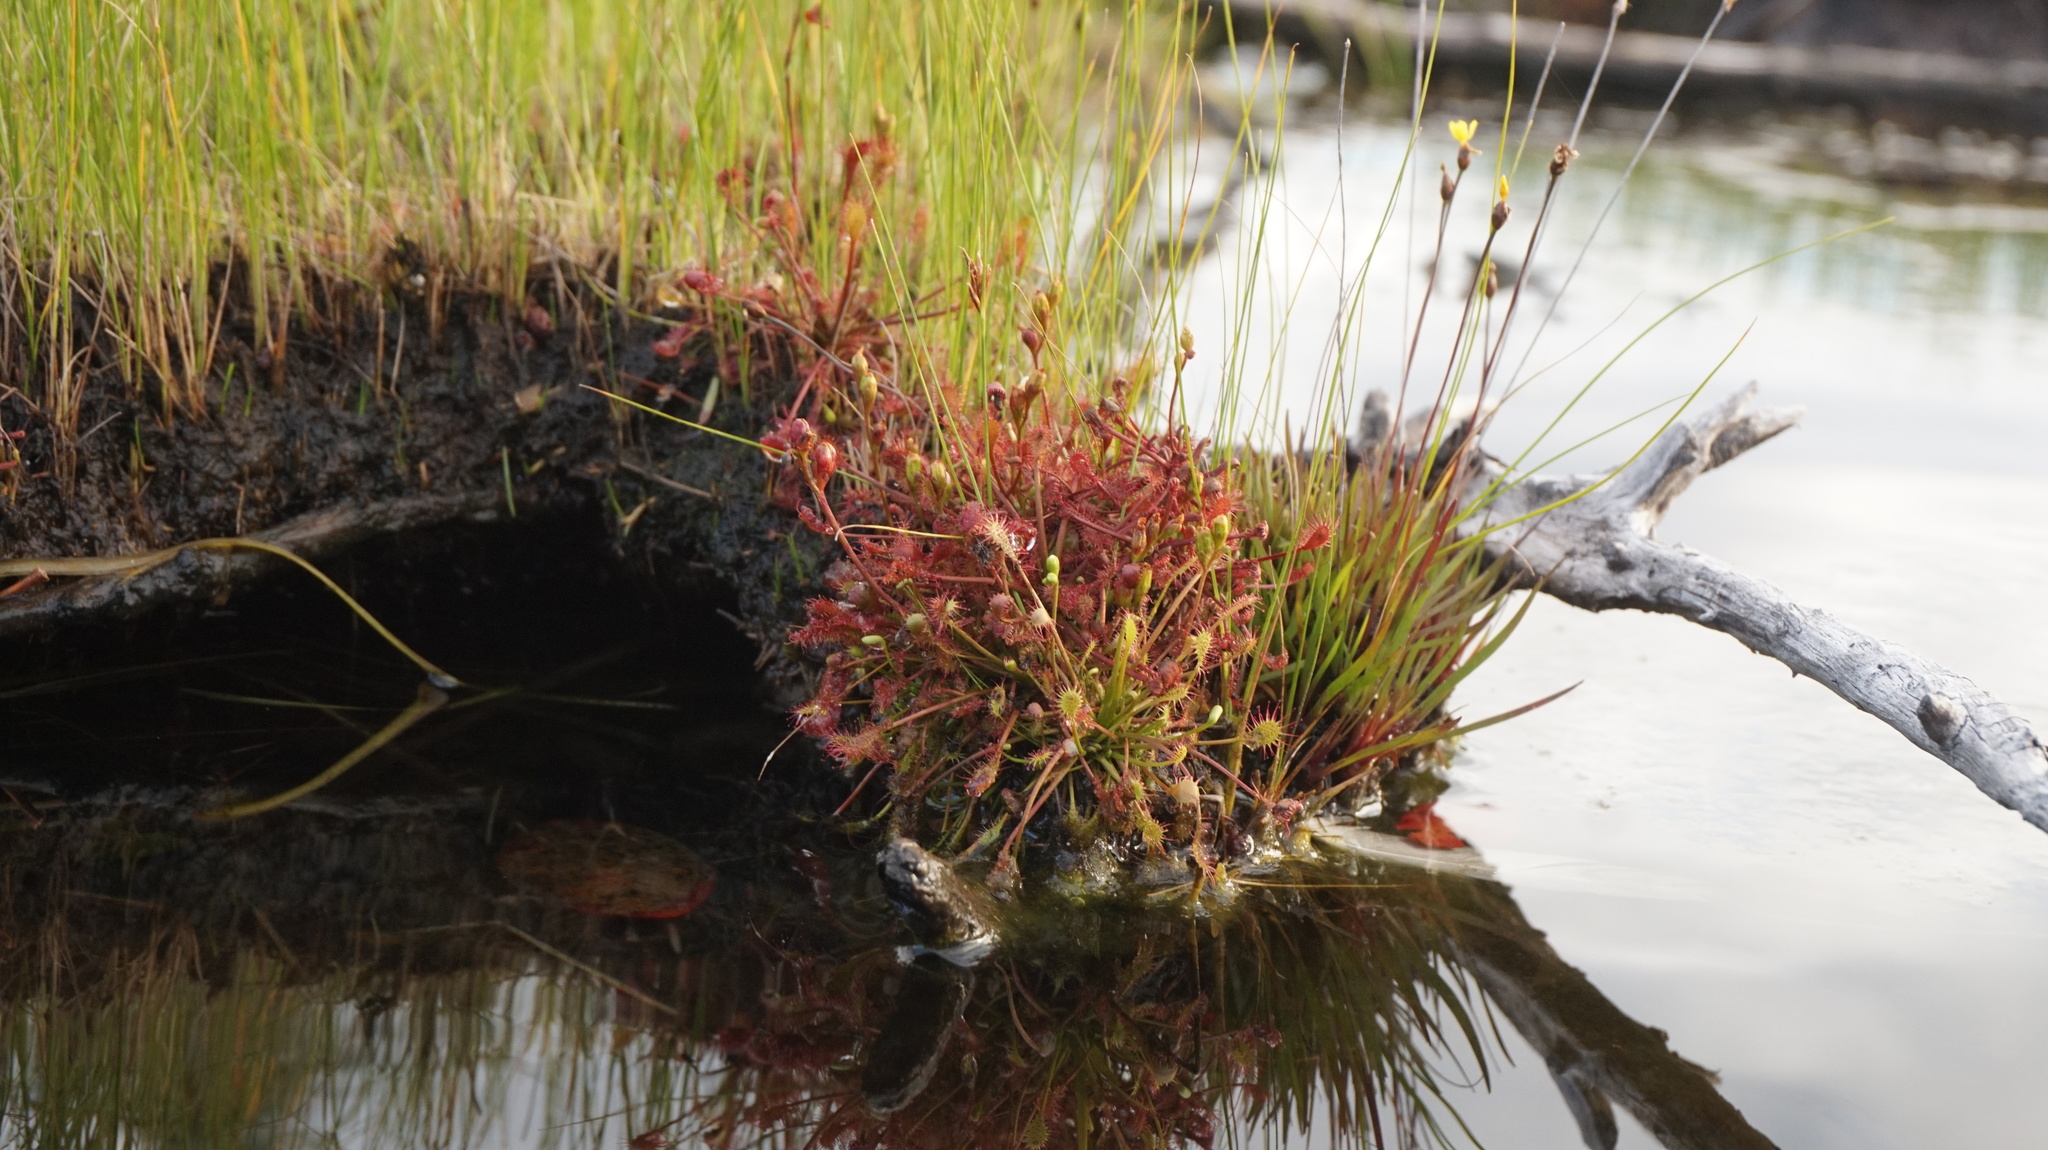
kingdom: Plantae
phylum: Tracheophyta
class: Magnoliopsida
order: Caryophyllales
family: Droseraceae
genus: Drosera
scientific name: Drosera intermedia
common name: Oblong-leaved sundew
